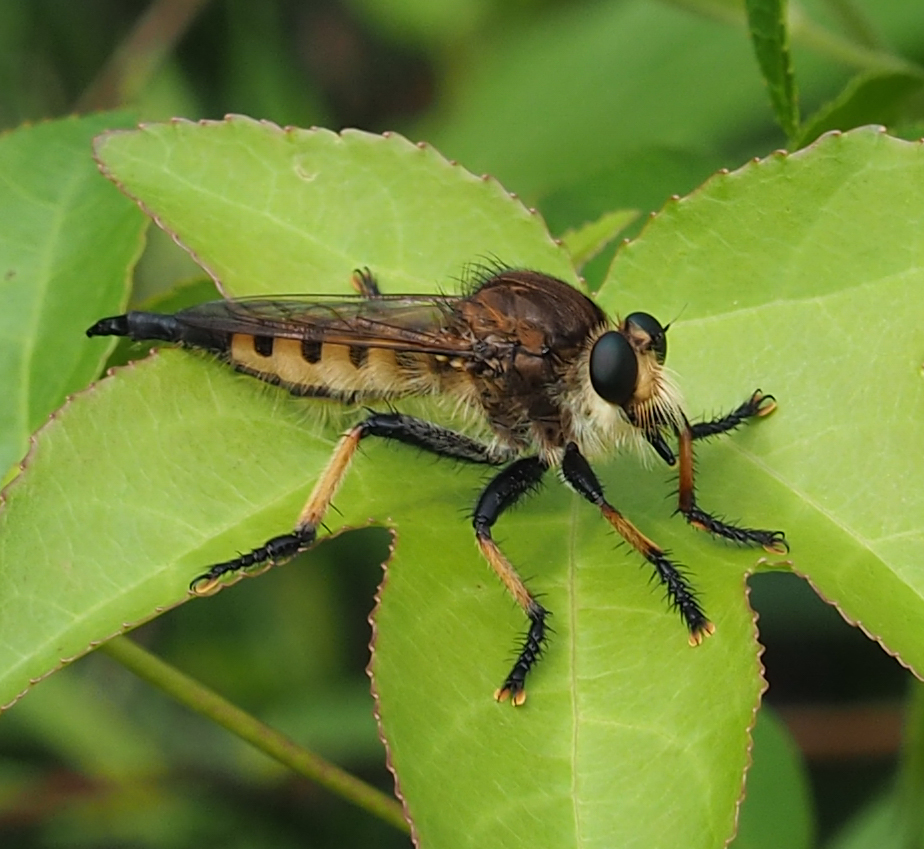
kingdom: Animalia
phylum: Arthropoda
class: Insecta
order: Diptera
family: Asilidae
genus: Promachus
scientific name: Promachus rufipes
